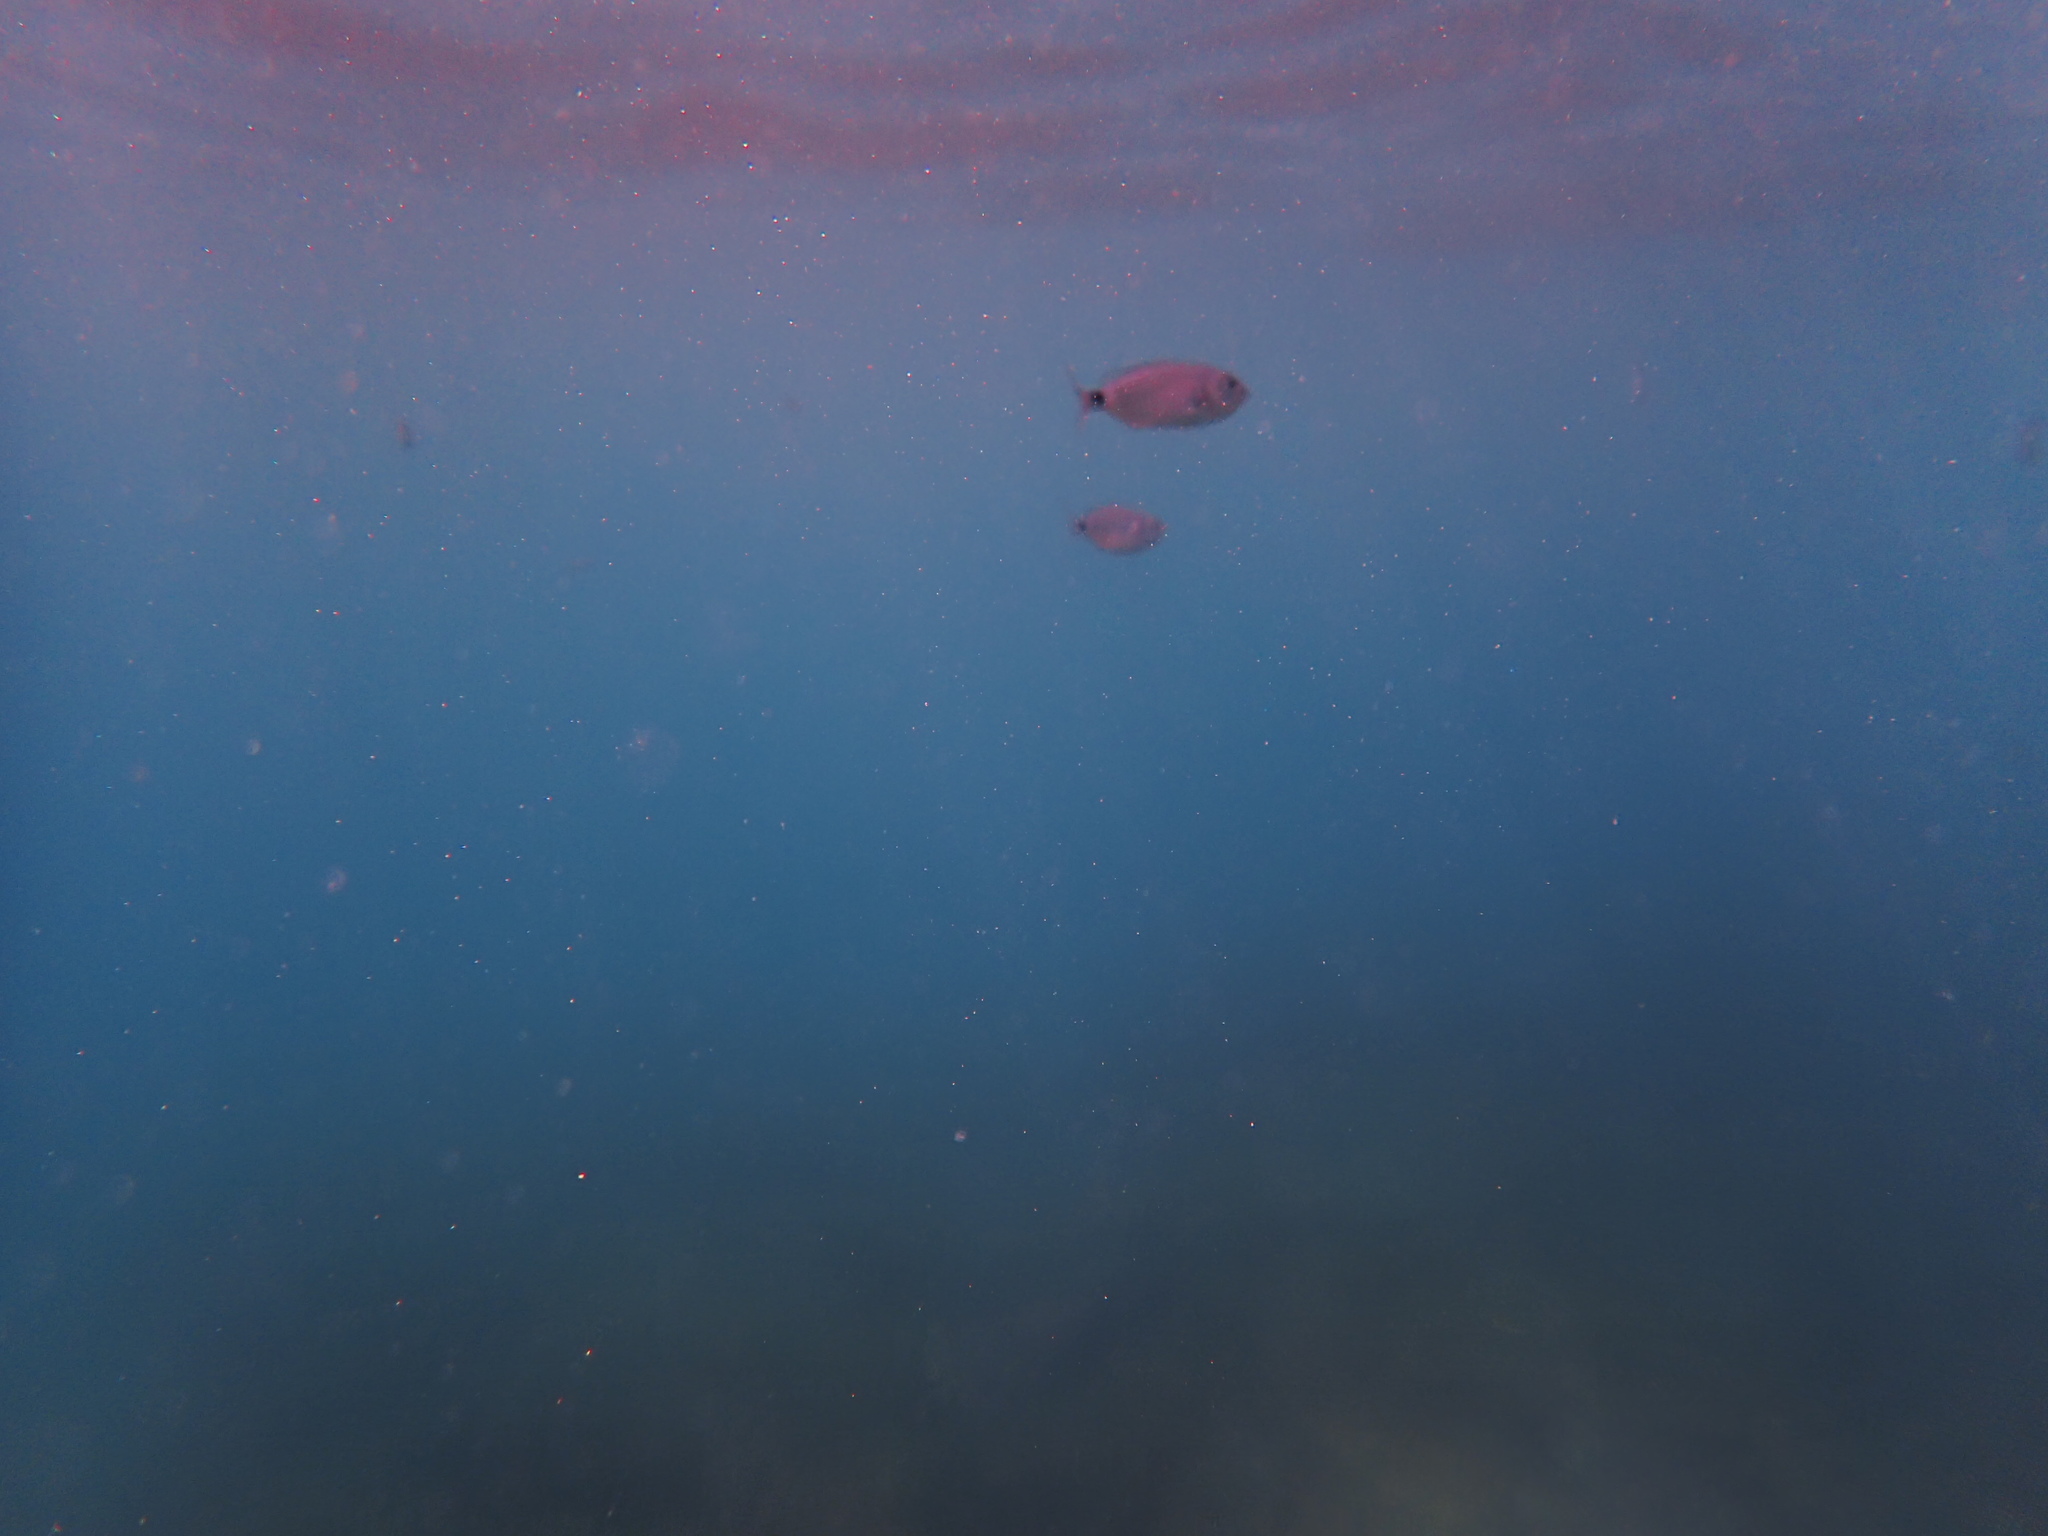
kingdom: Animalia
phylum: Chordata
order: Perciformes
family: Sparidae
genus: Oblada
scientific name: Oblada melanura
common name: Saddled seabream
